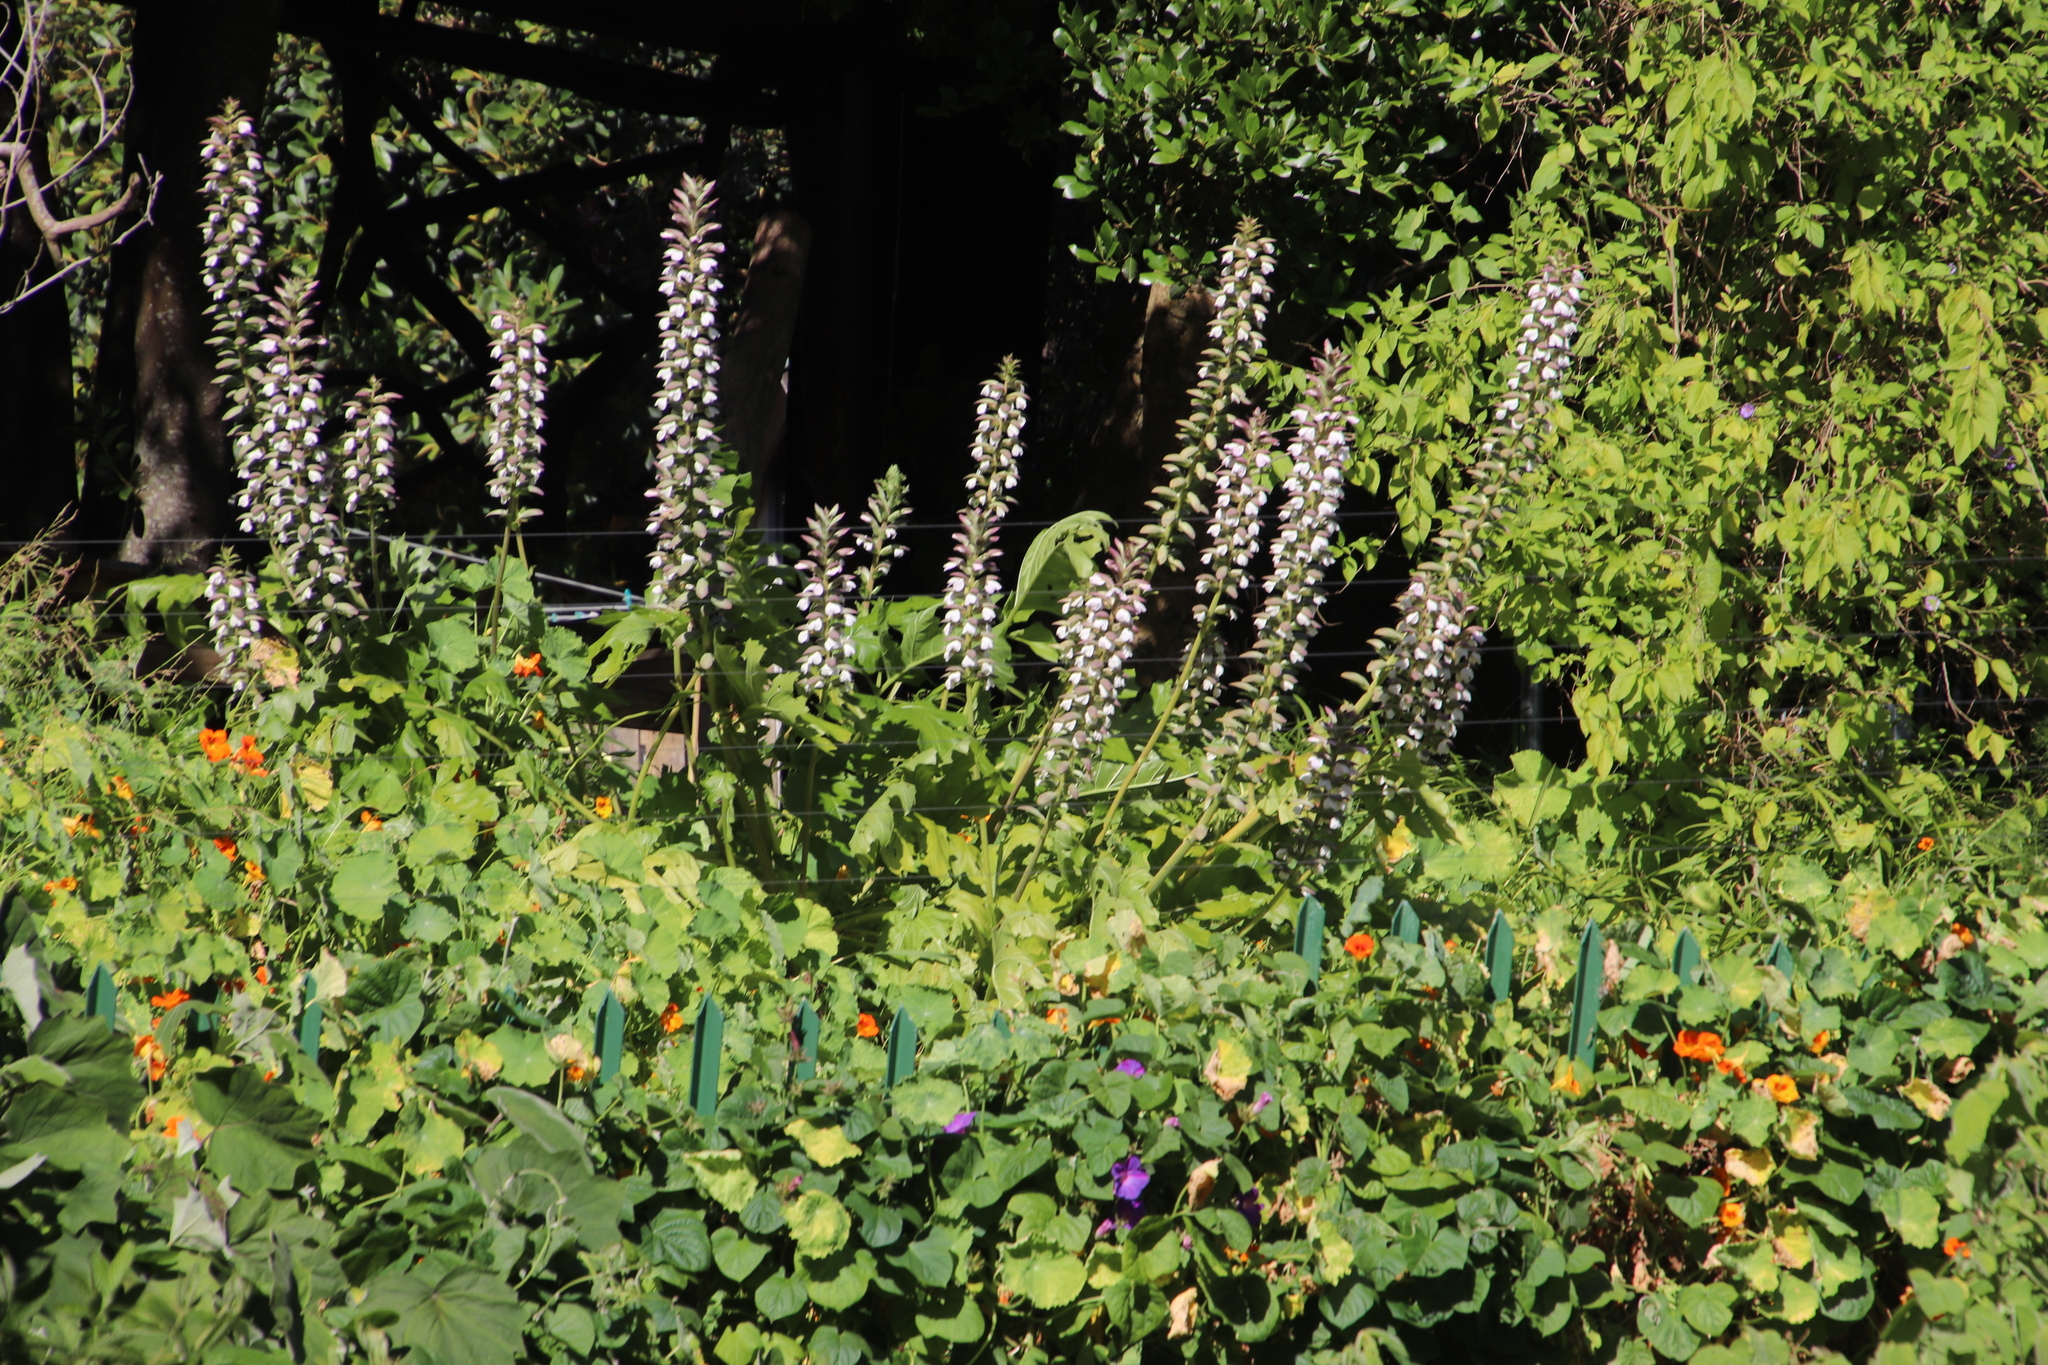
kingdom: Plantae
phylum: Tracheophyta
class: Magnoliopsida
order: Lamiales
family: Acanthaceae
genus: Acanthus
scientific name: Acanthus mollis
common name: Bear's-breech
